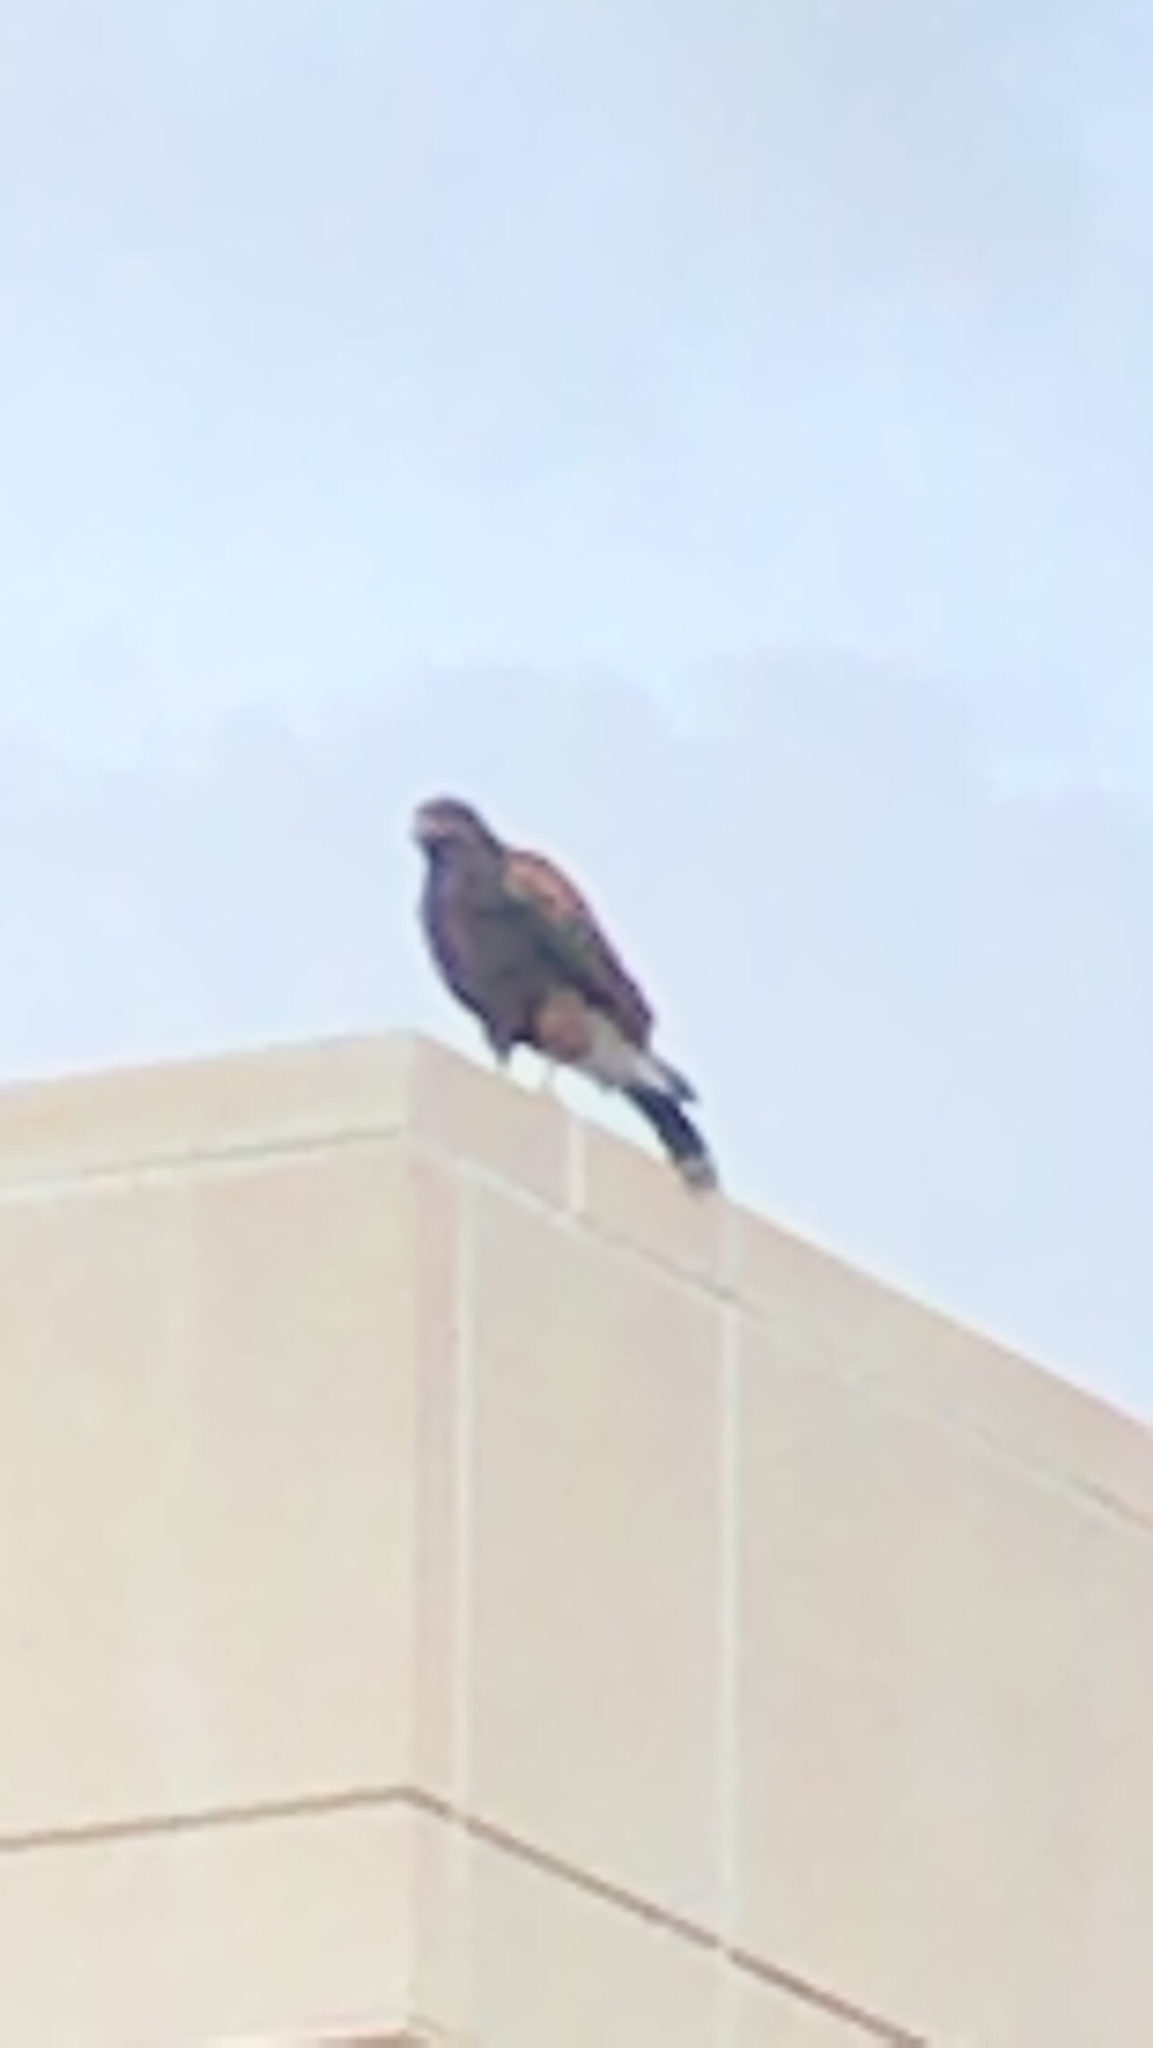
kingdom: Animalia
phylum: Chordata
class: Aves
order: Accipitriformes
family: Accipitridae
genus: Parabuteo
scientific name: Parabuteo unicinctus
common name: Harris's hawk
